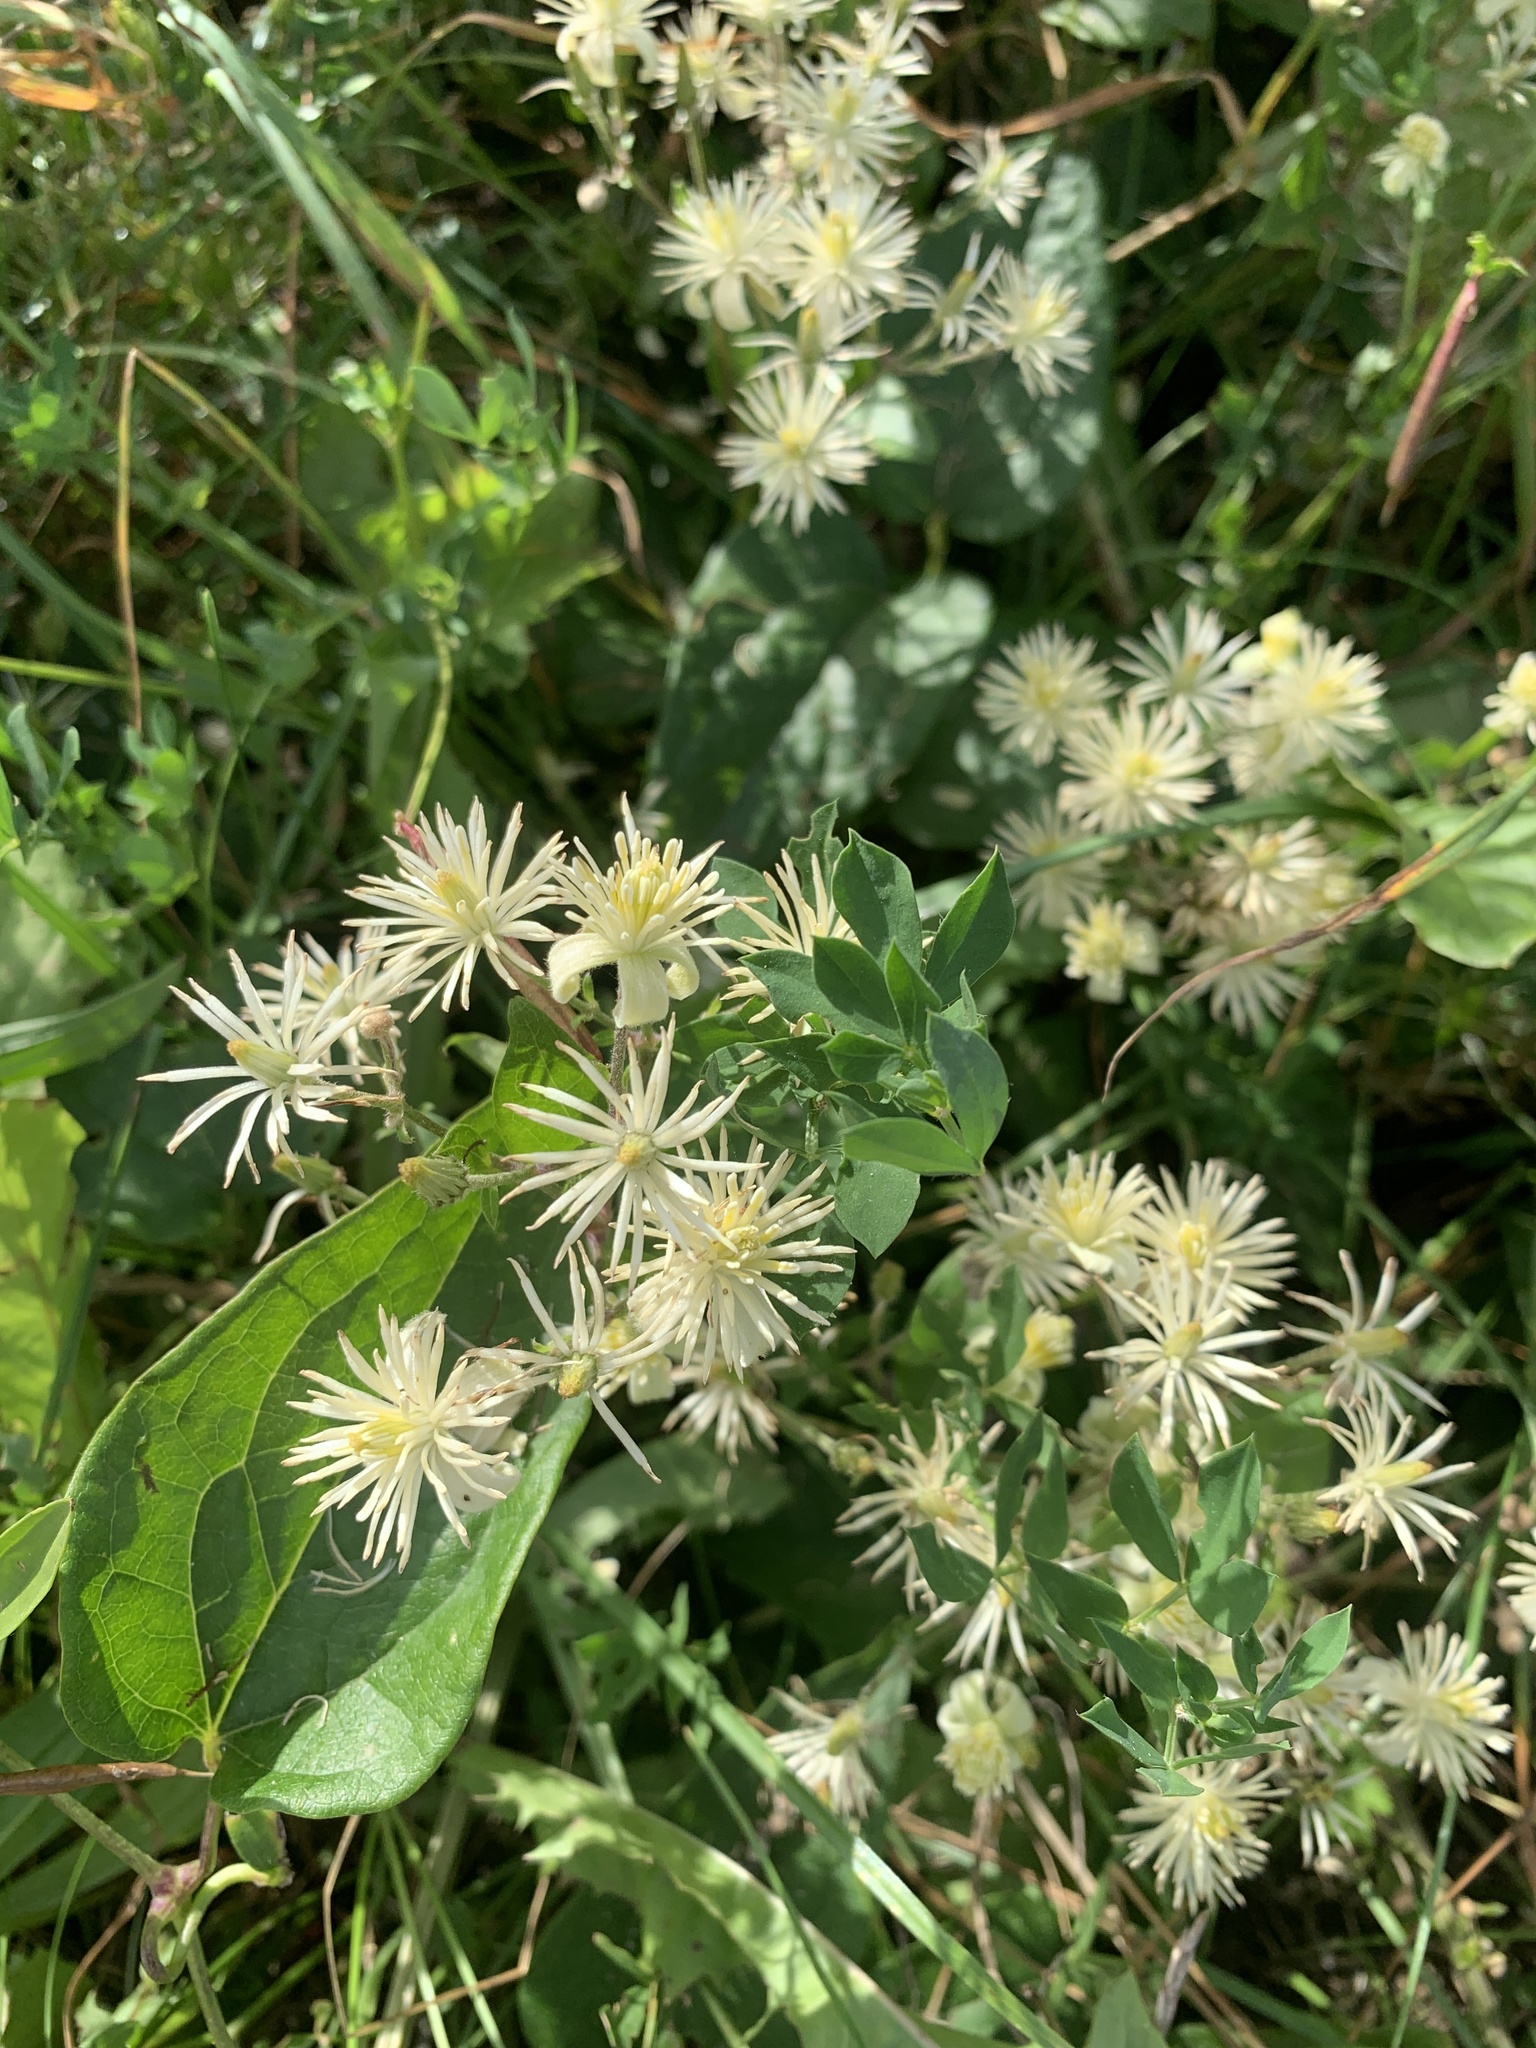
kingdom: Plantae
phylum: Tracheophyta
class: Magnoliopsida
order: Ranunculales
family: Ranunculaceae
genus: Clematis
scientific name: Clematis vitalba
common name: Evergreen clematis
